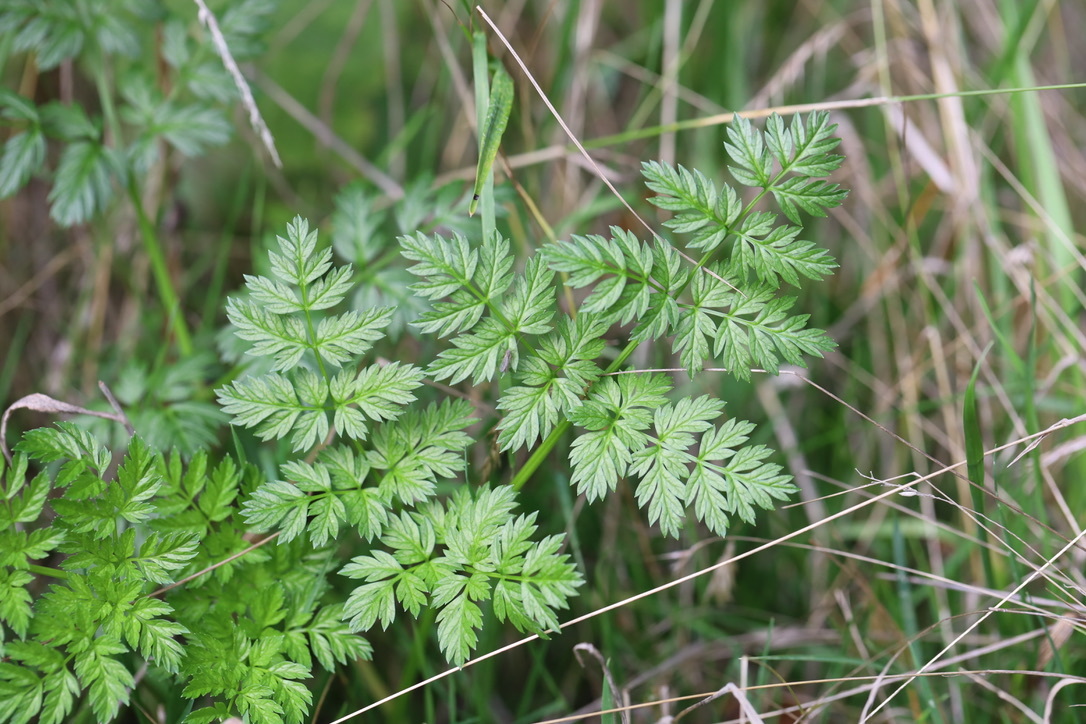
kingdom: Plantae
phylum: Tracheophyta
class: Magnoliopsida
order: Apiales
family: Apiaceae
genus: Conium
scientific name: Conium maculatum
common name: Hemlock
